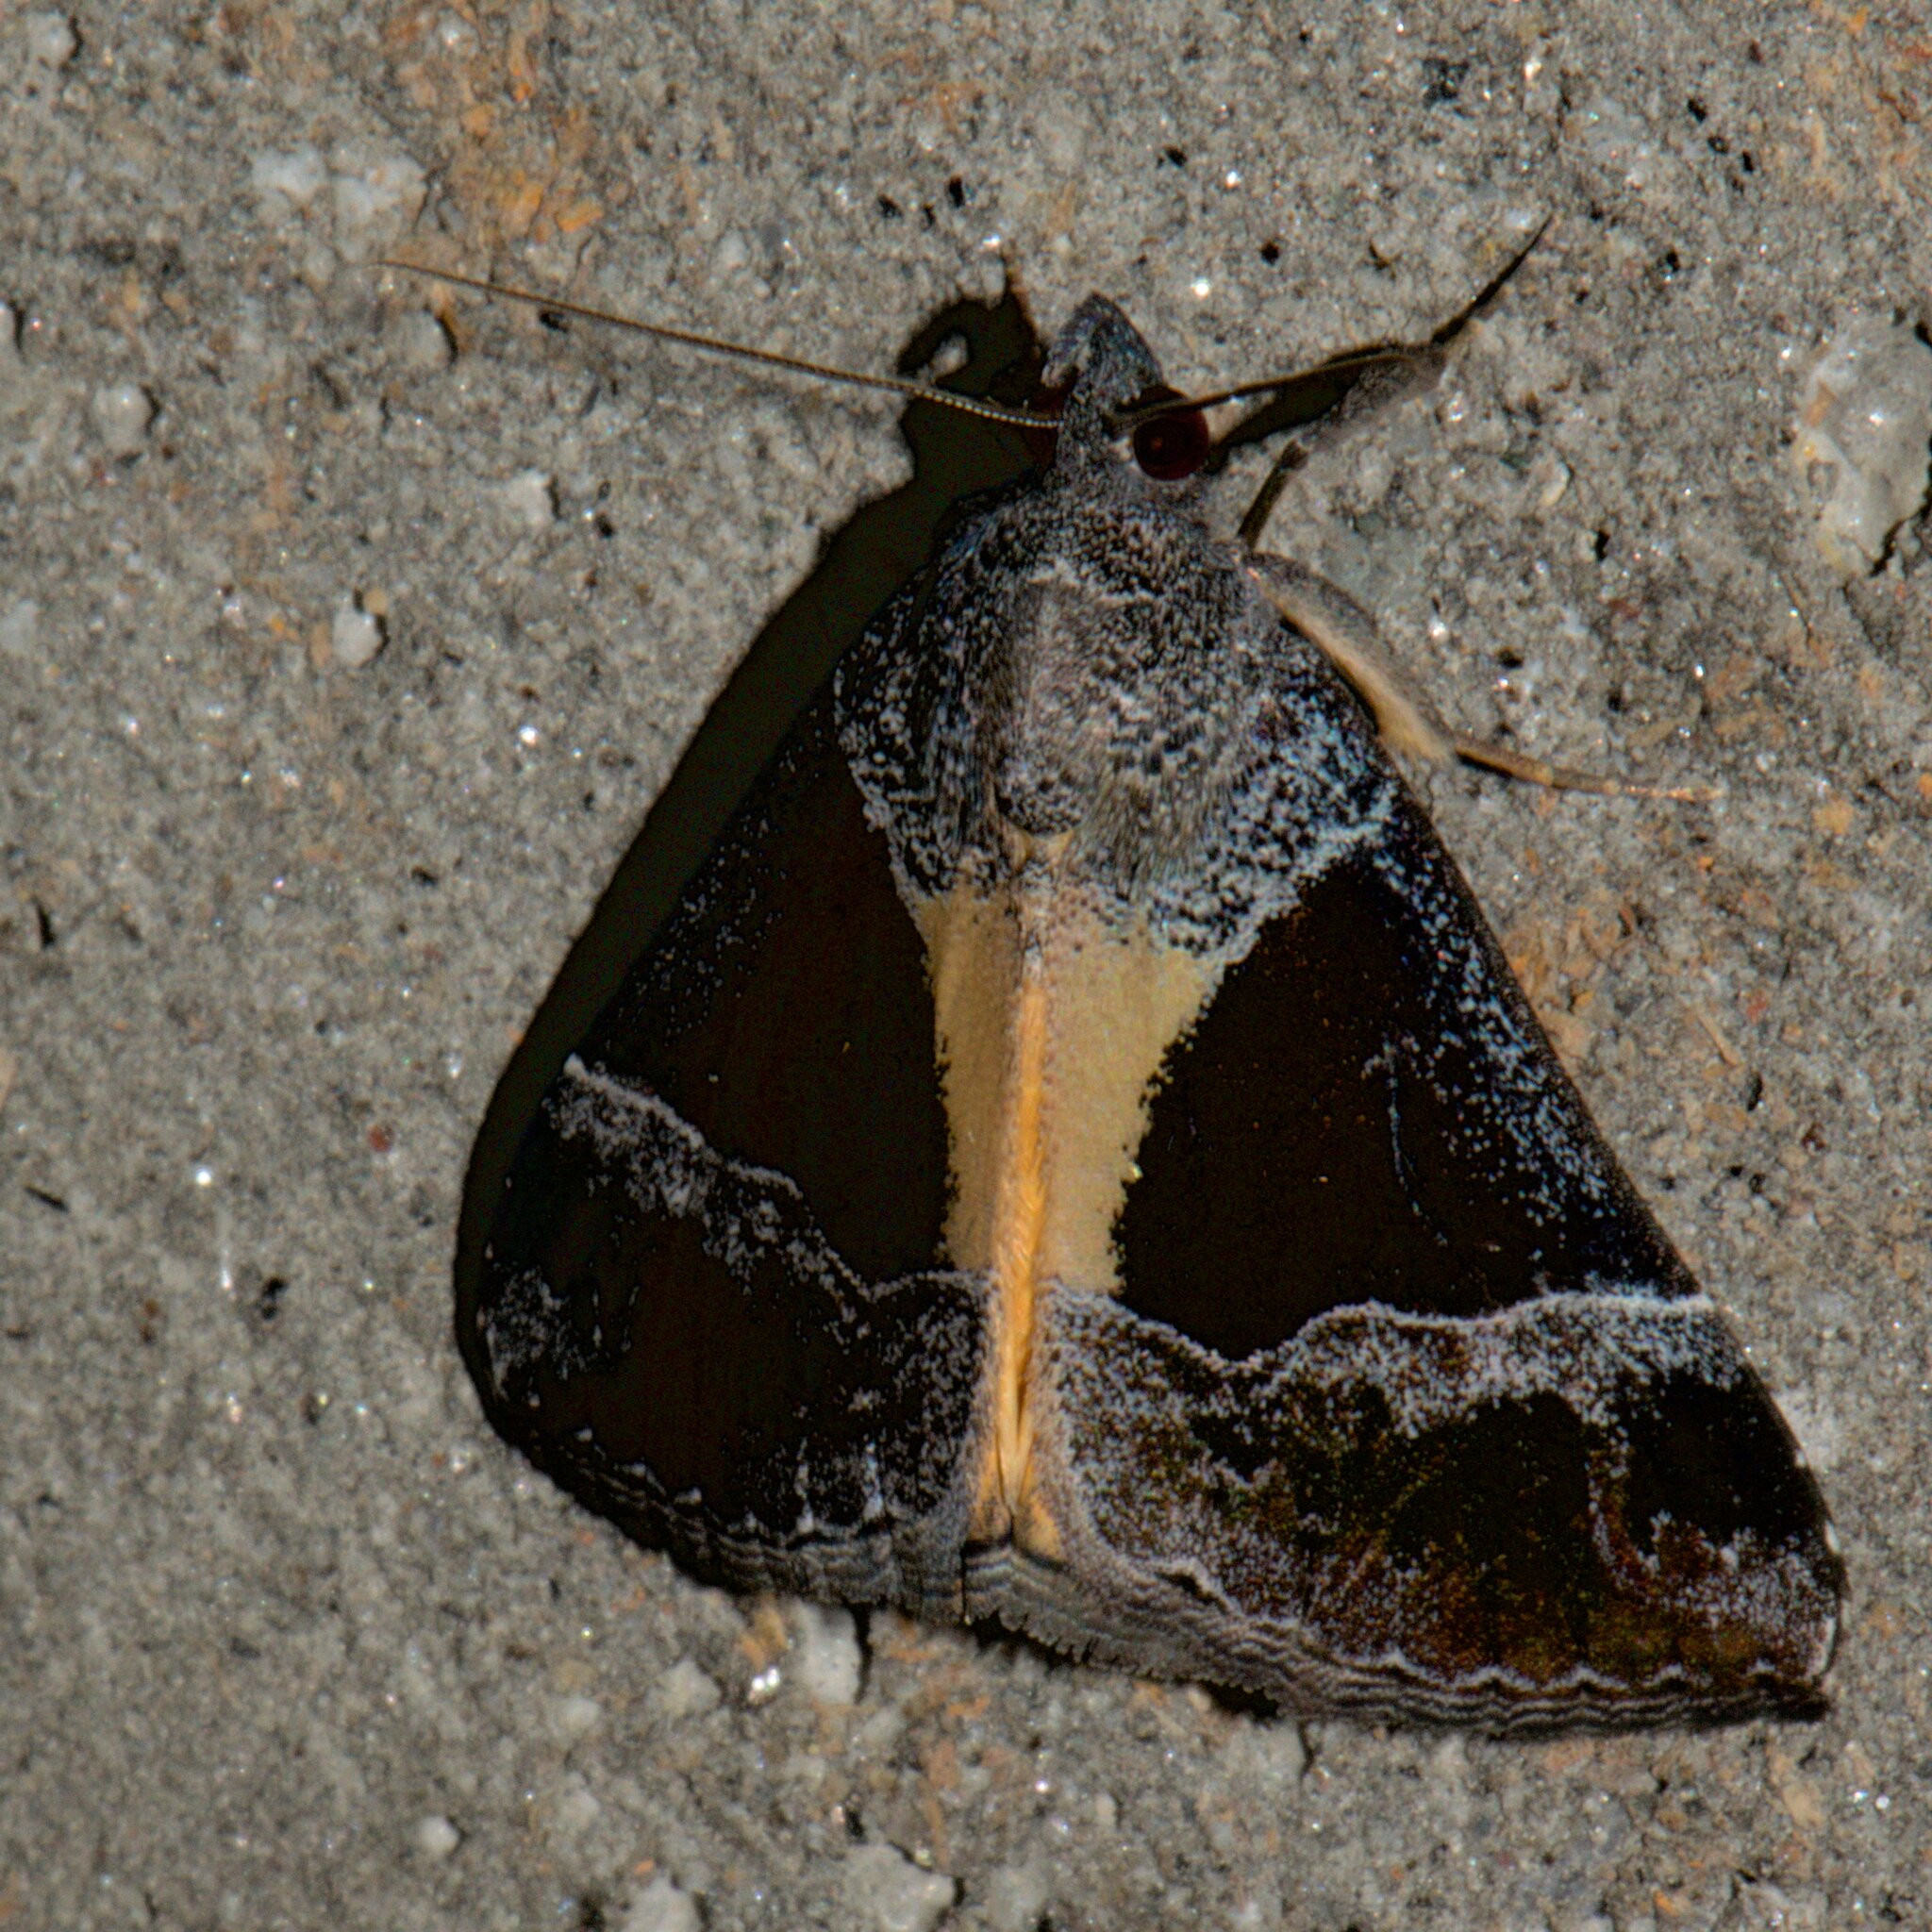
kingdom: Animalia
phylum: Arthropoda
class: Insecta
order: Lepidoptera
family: Erebidae
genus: Hypena
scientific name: Hypena quadralis
